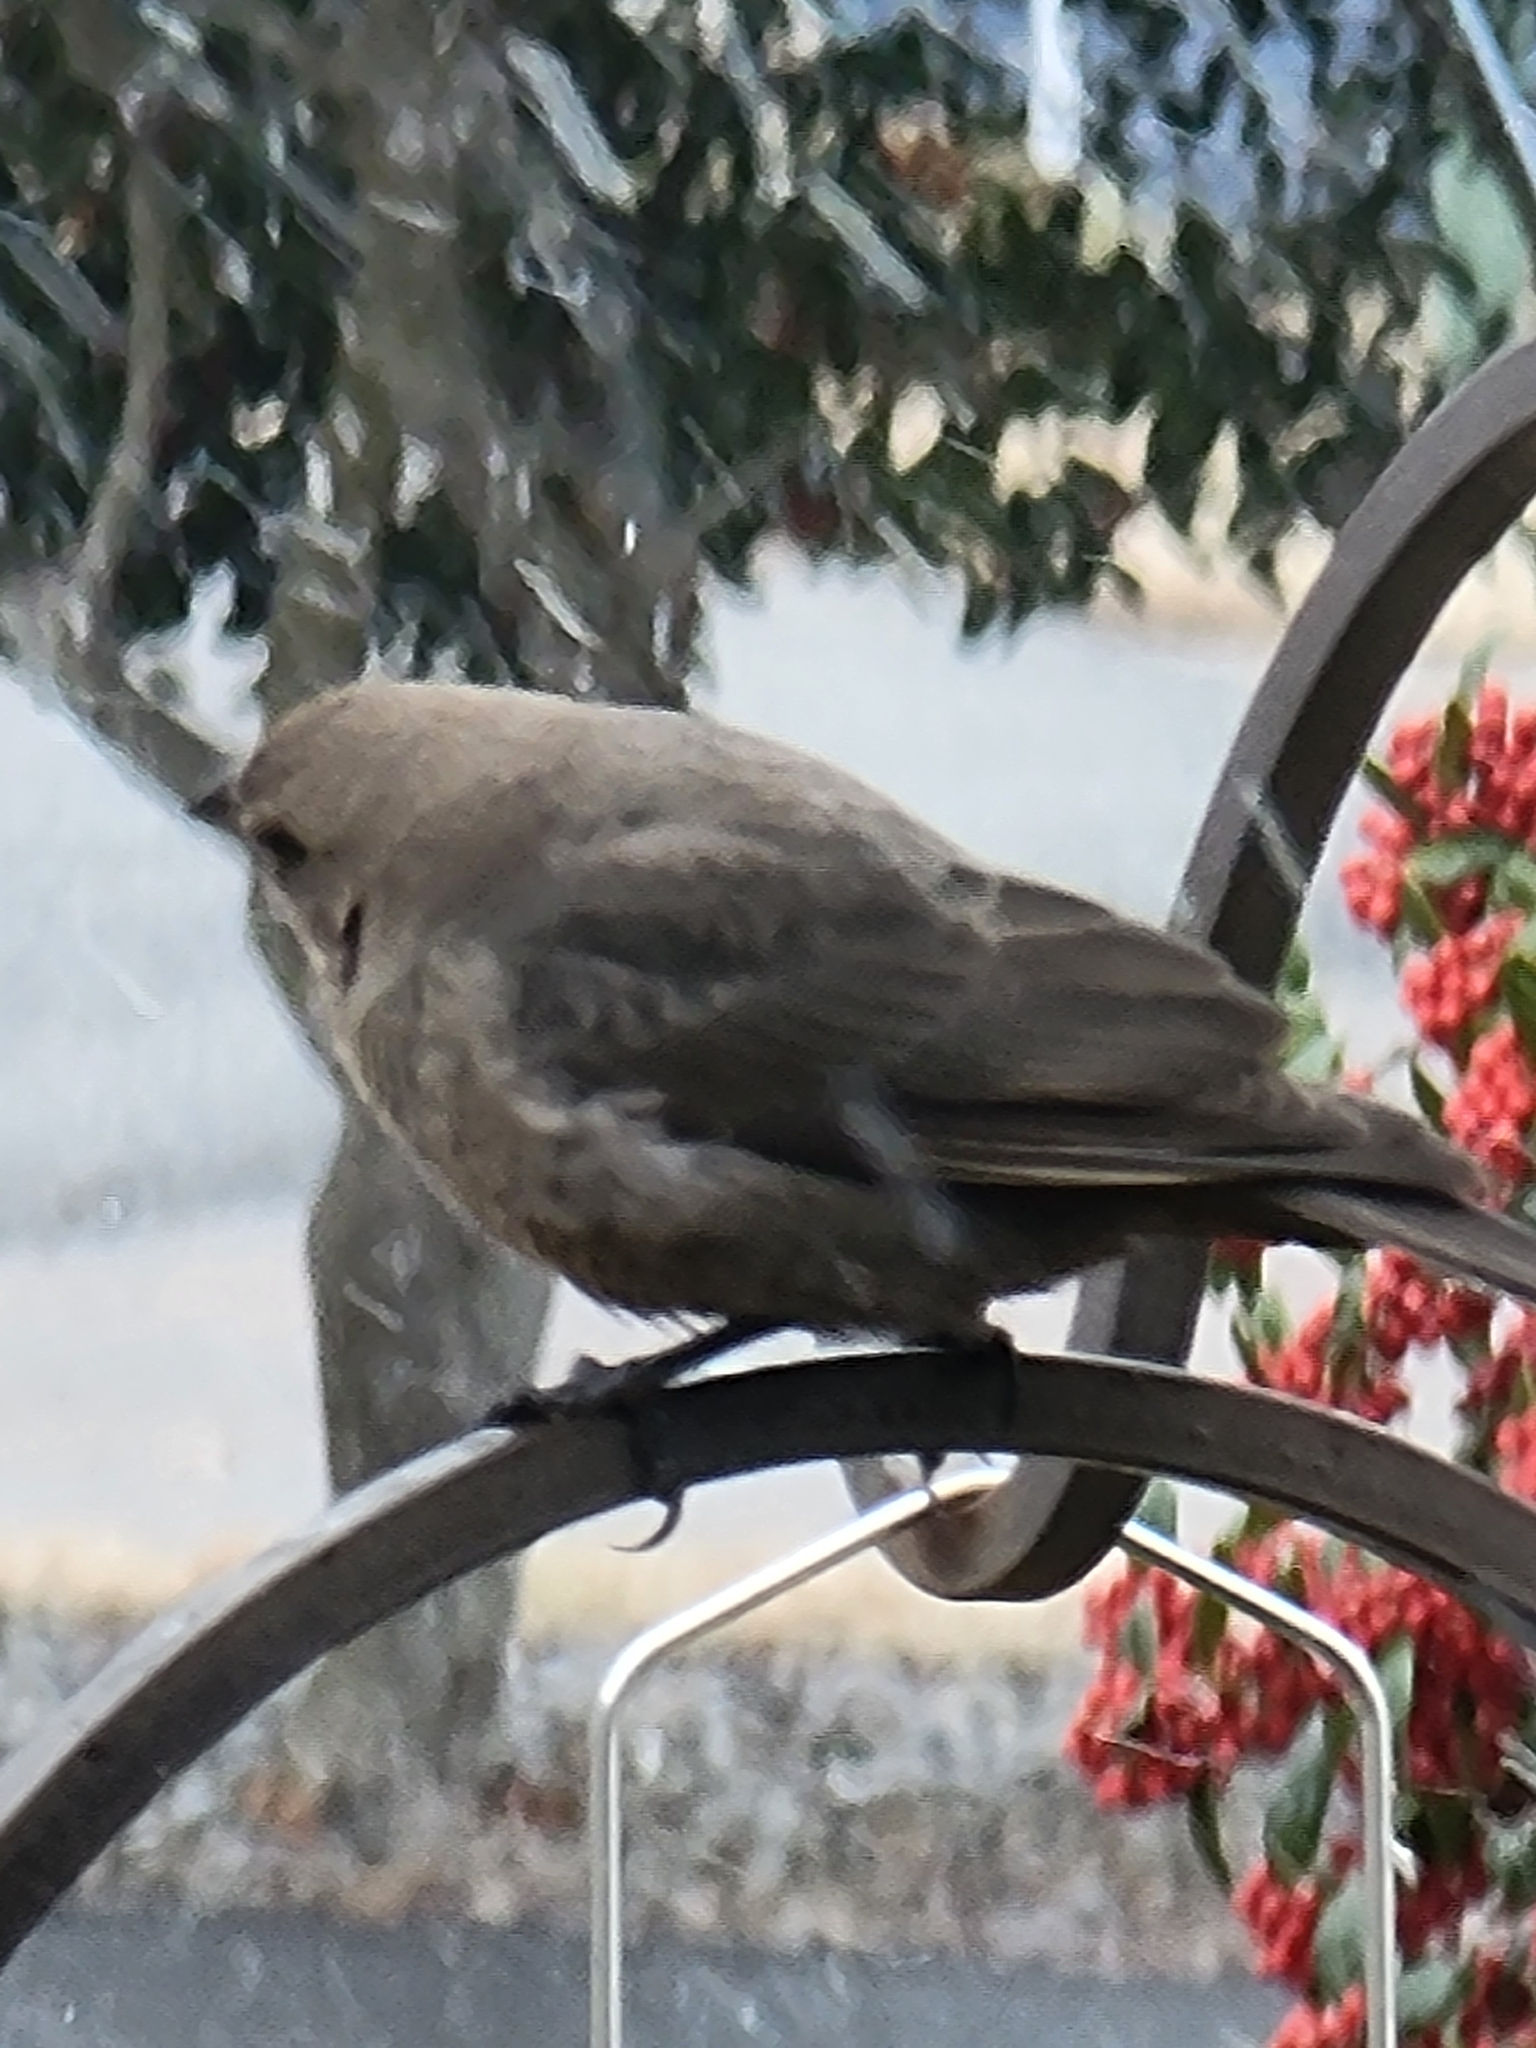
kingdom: Animalia
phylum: Chordata
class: Aves
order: Passeriformes
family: Icteridae
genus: Molothrus
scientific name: Molothrus ater
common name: Brown-headed cowbird
